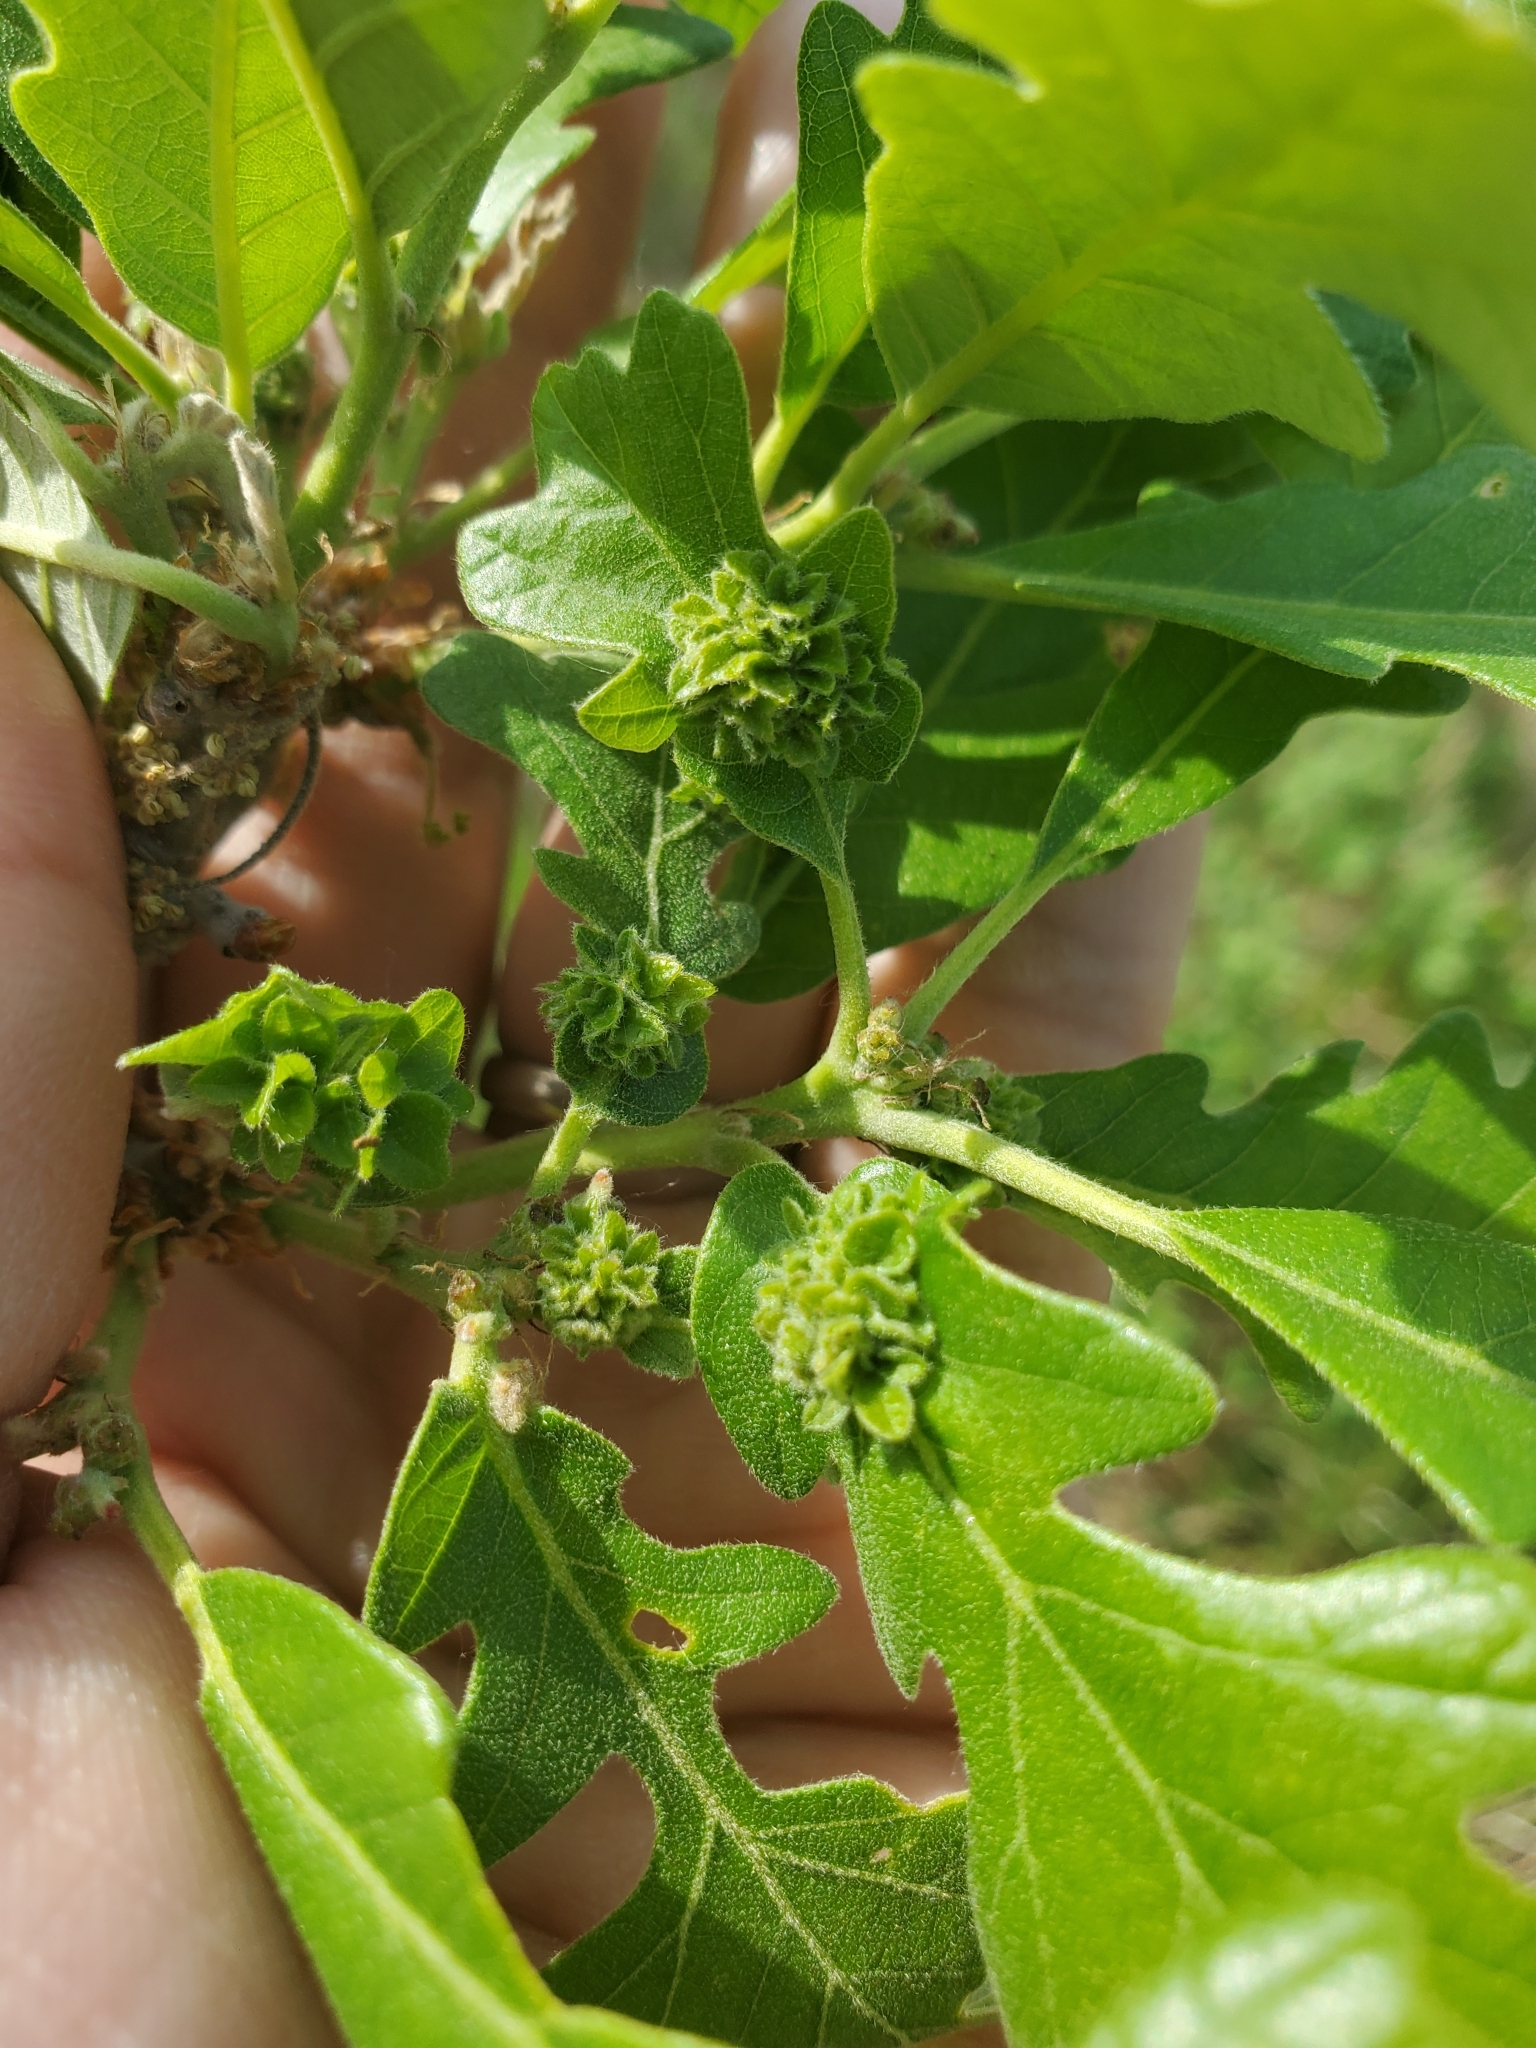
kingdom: Animalia
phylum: Arthropoda
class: Insecta
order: Hymenoptera
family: Cynipidae
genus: Andricus
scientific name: Andricus
